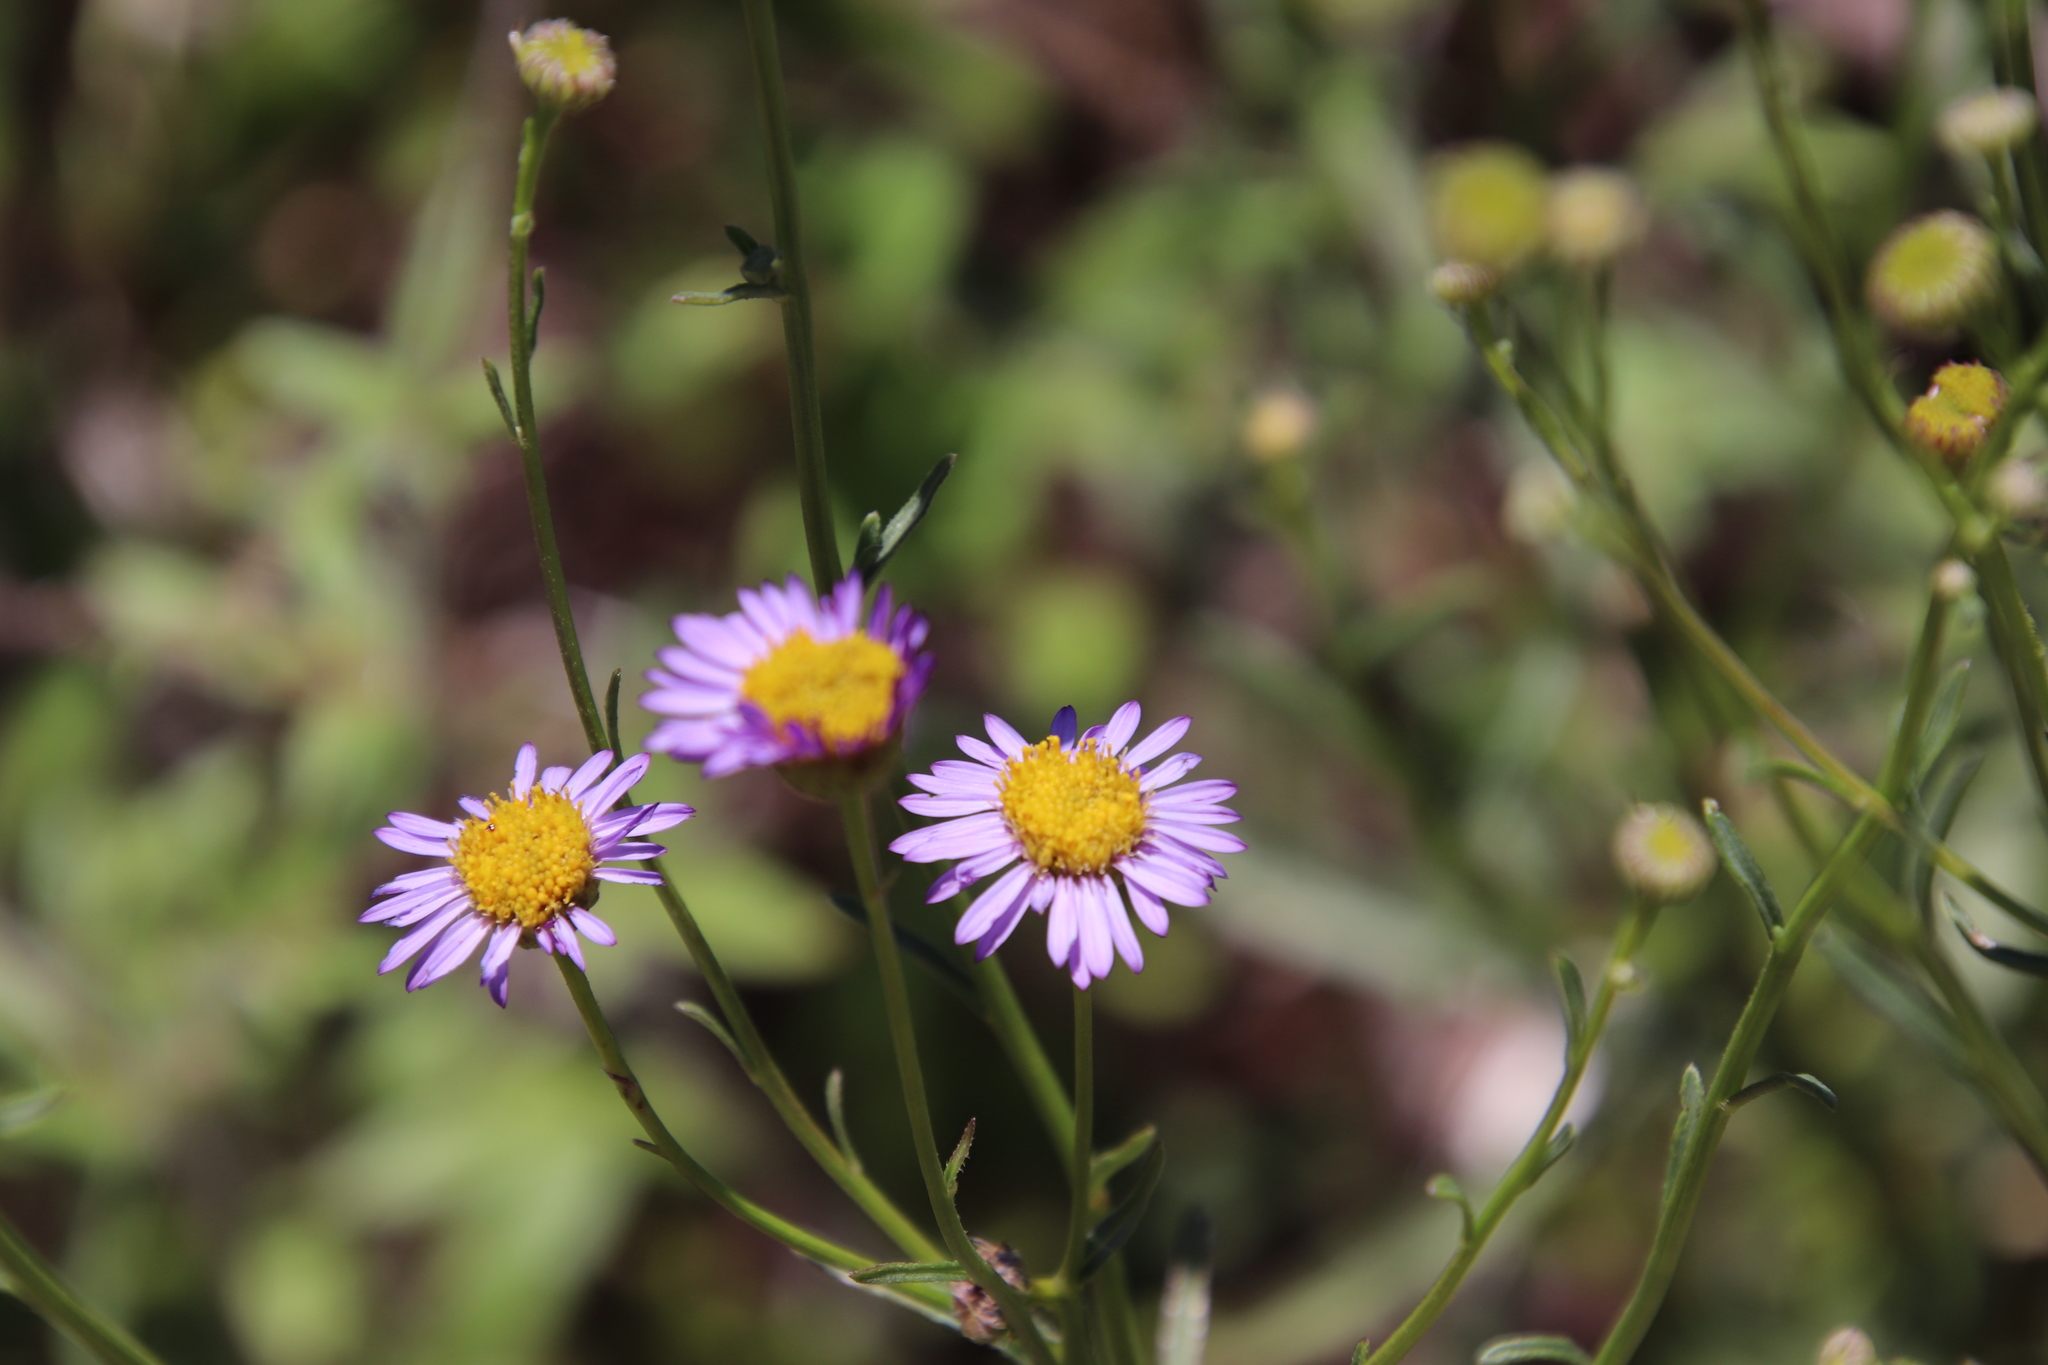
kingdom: Plantae
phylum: Tracheophyta
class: Magnoliopsida
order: Asterales
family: Asteraceae
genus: Erigeron
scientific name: Erigeron foliosus
